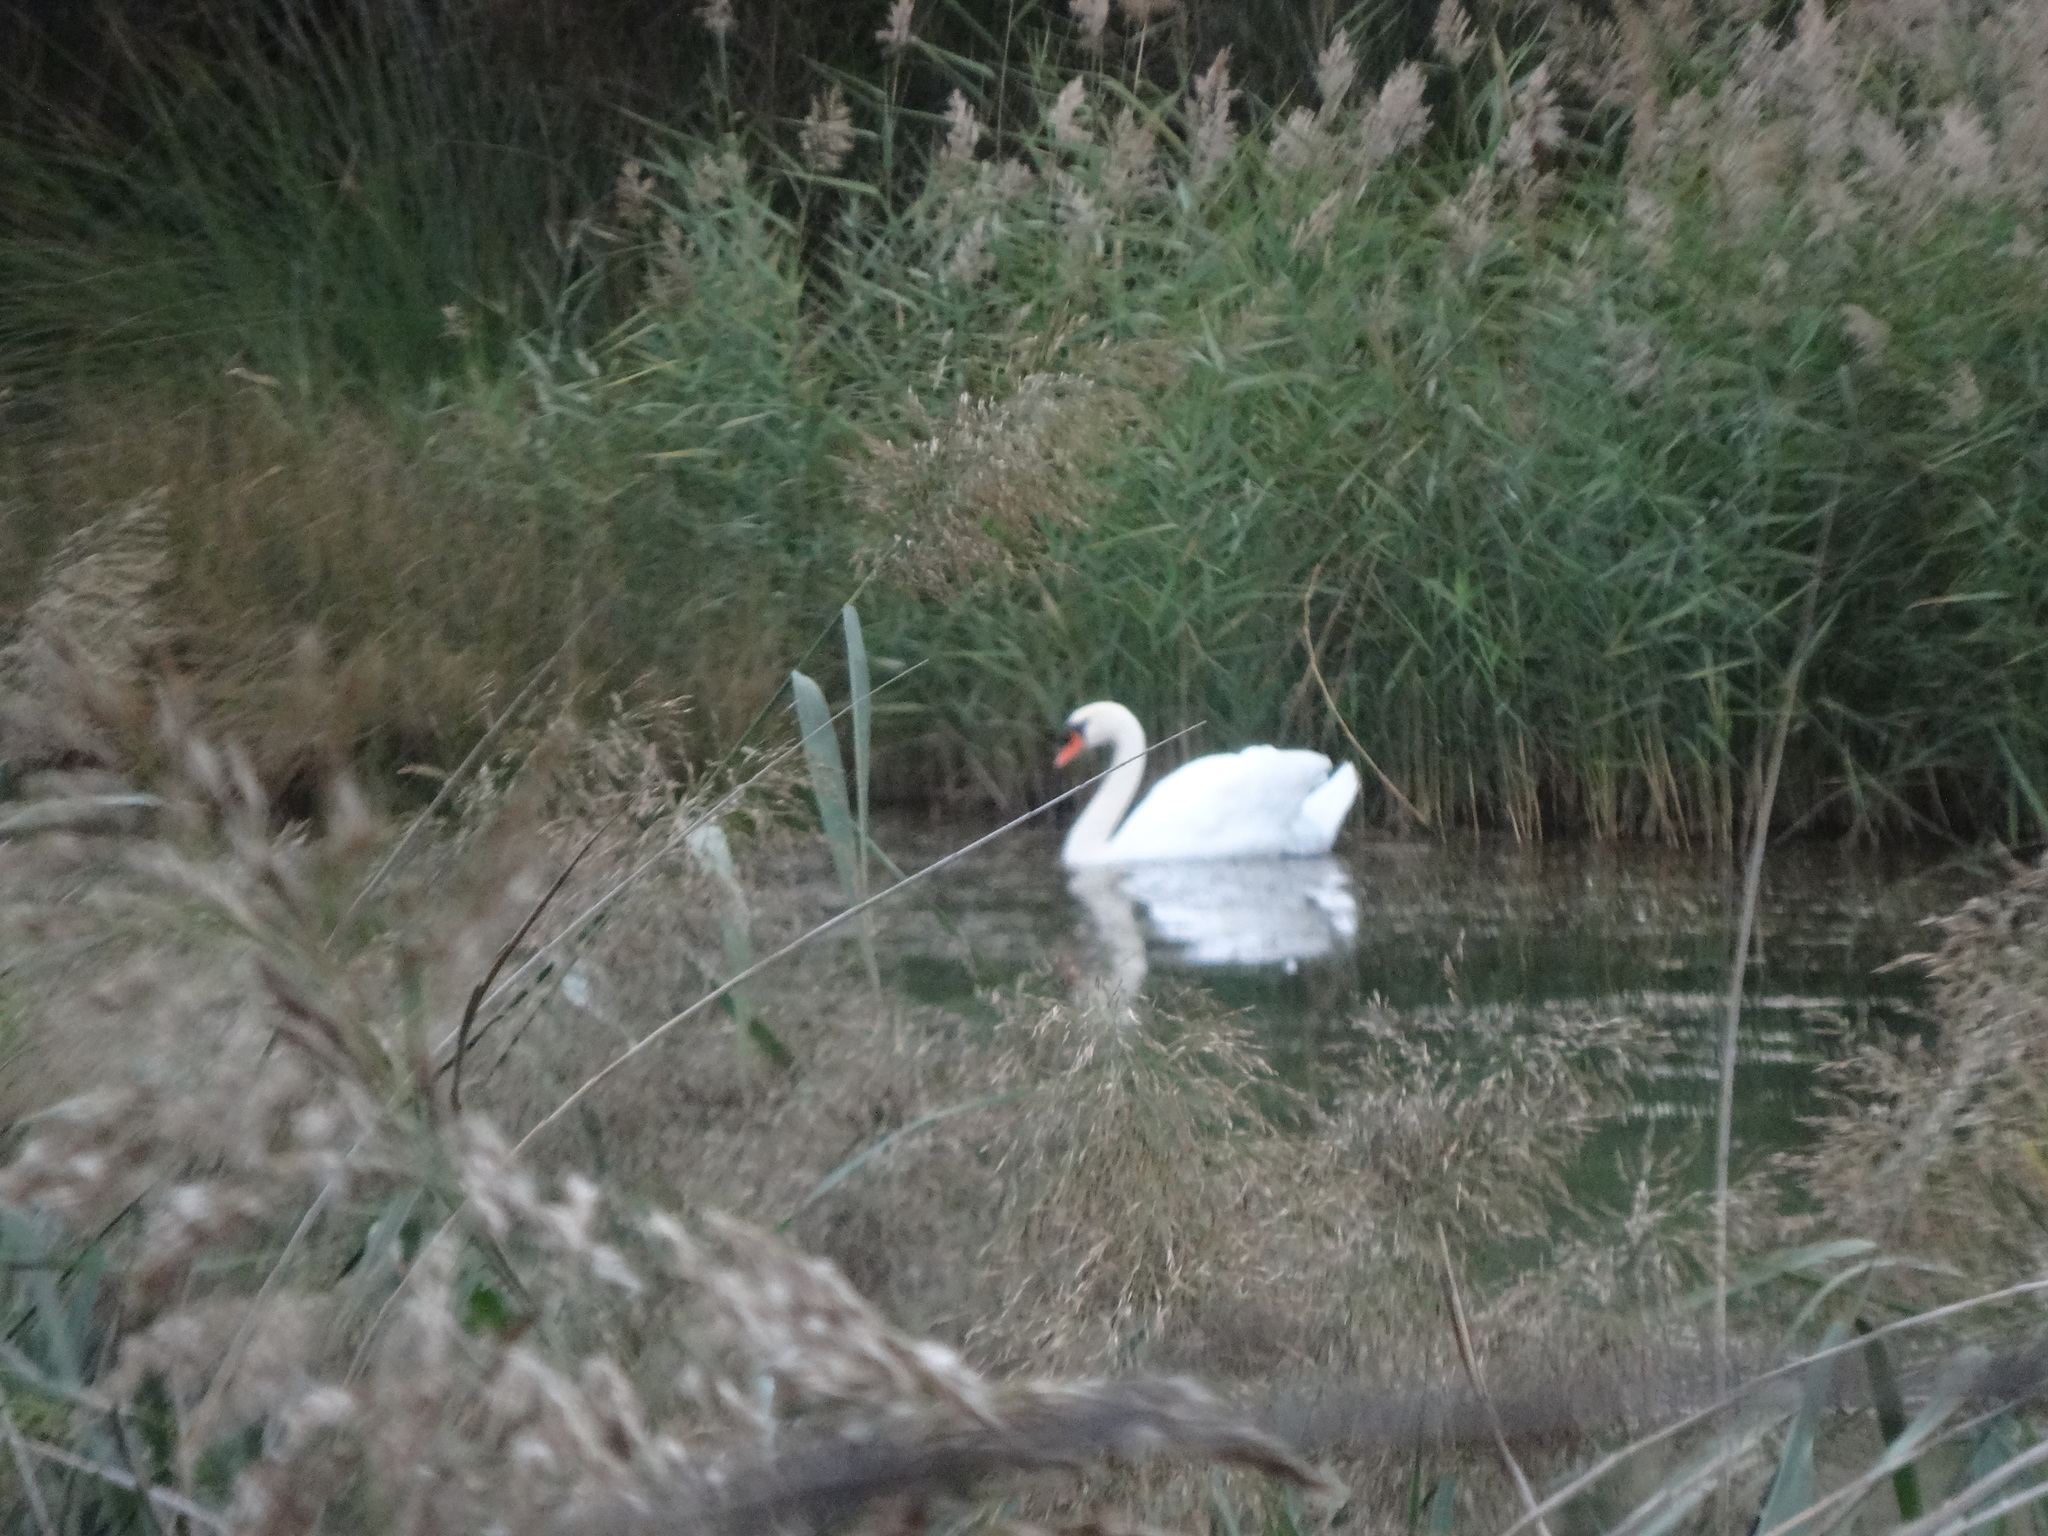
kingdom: Animalia
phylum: Chordata
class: Aves
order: Anseriformes
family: Anatidae
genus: Cygnus
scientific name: Cygnus olor
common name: Mute swan
